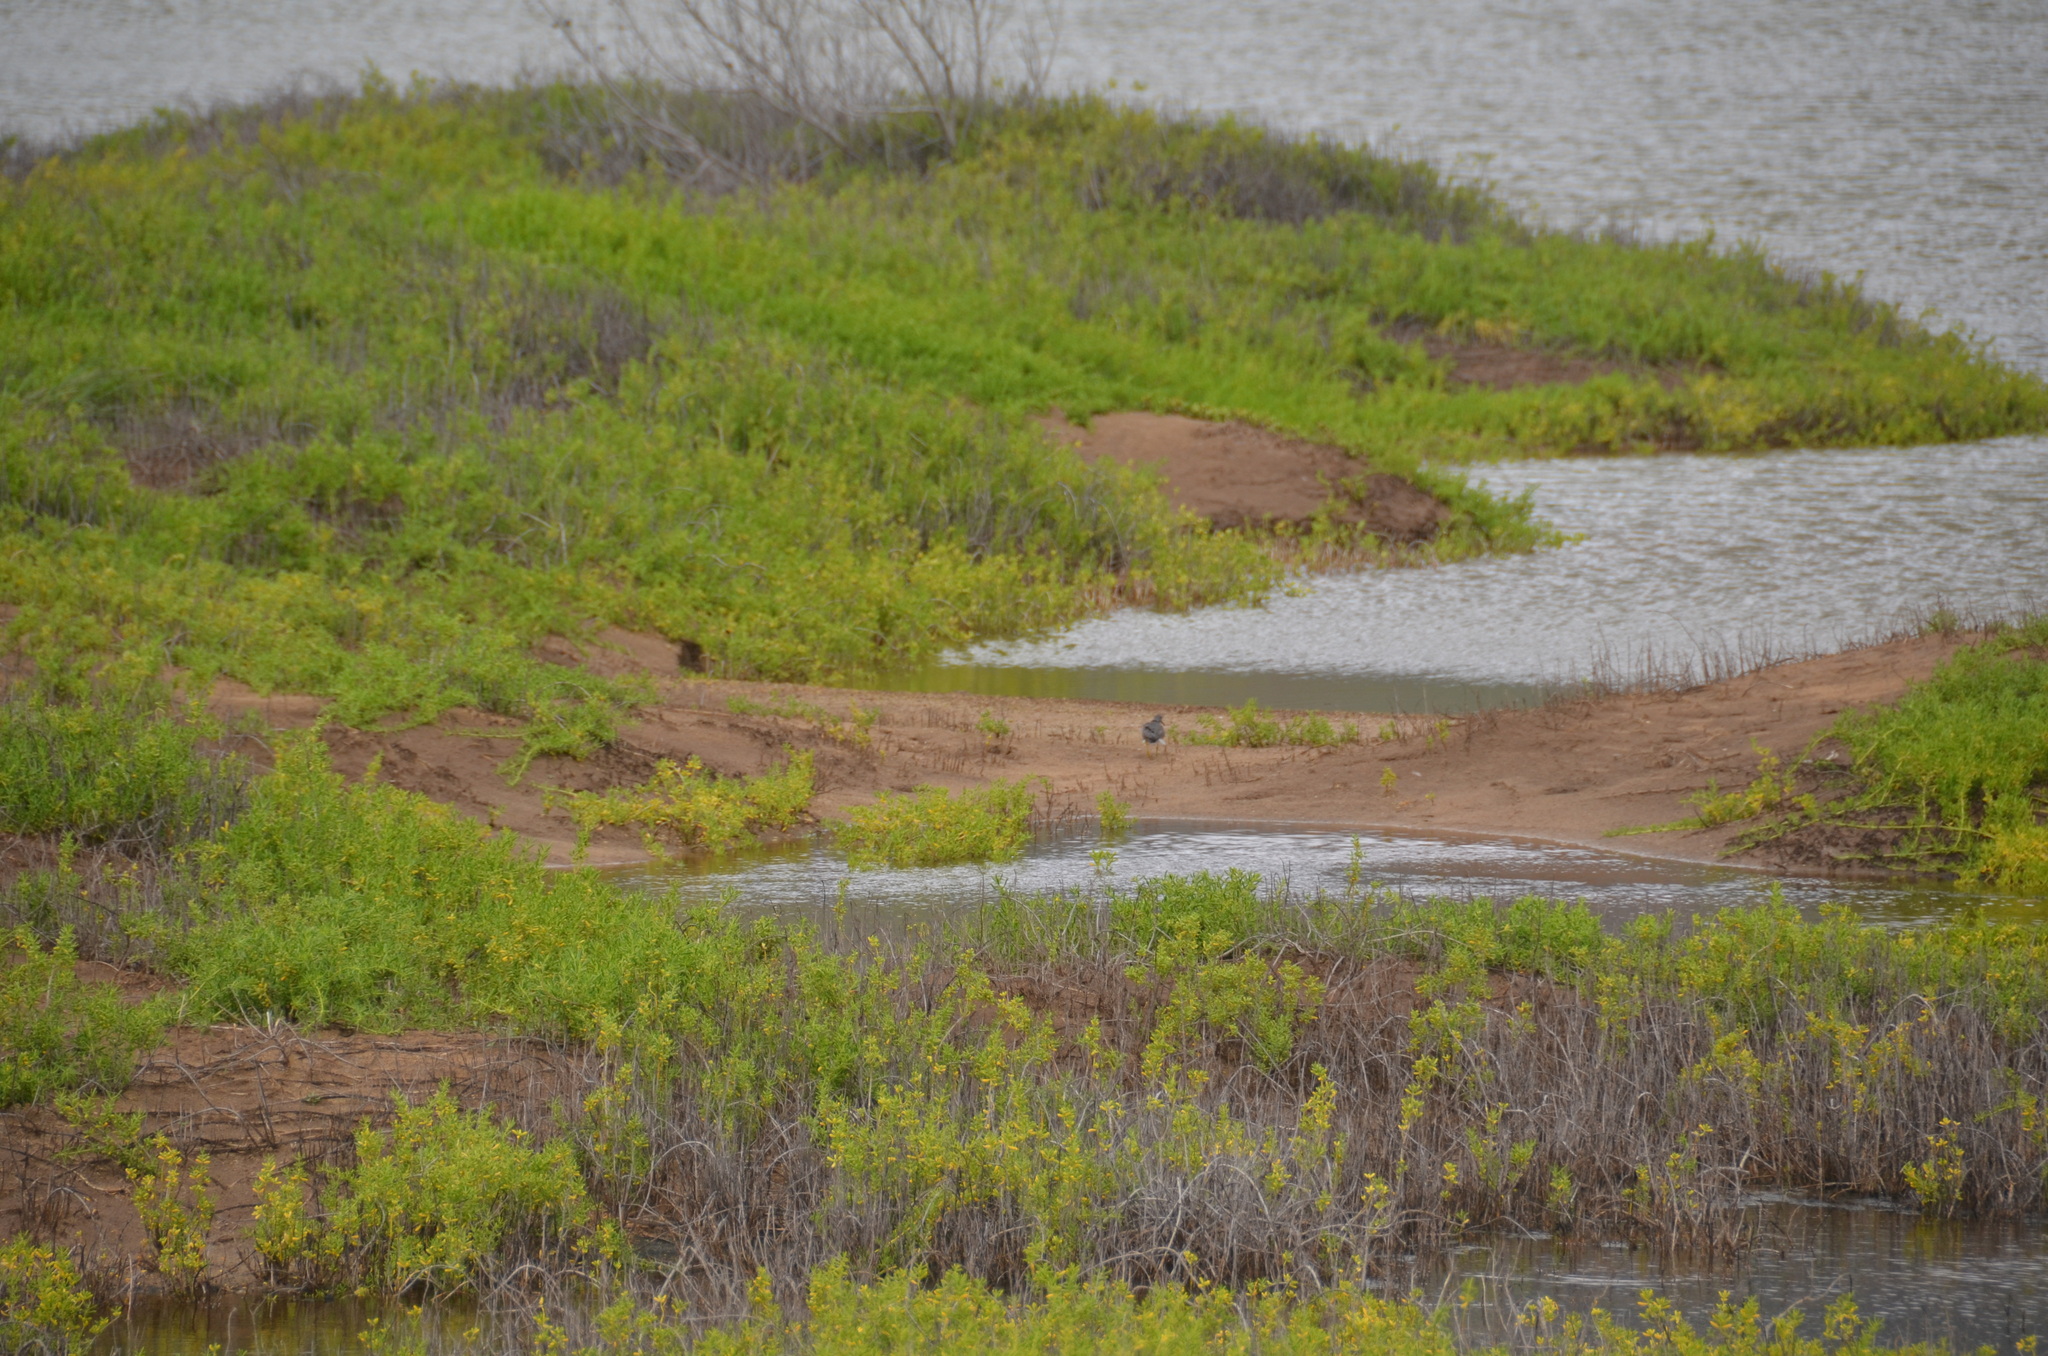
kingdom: Animalia
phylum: Chordata
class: Aves
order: Charadriiformes
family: Scolopacidae
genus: Tringa
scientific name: Tringa incana
